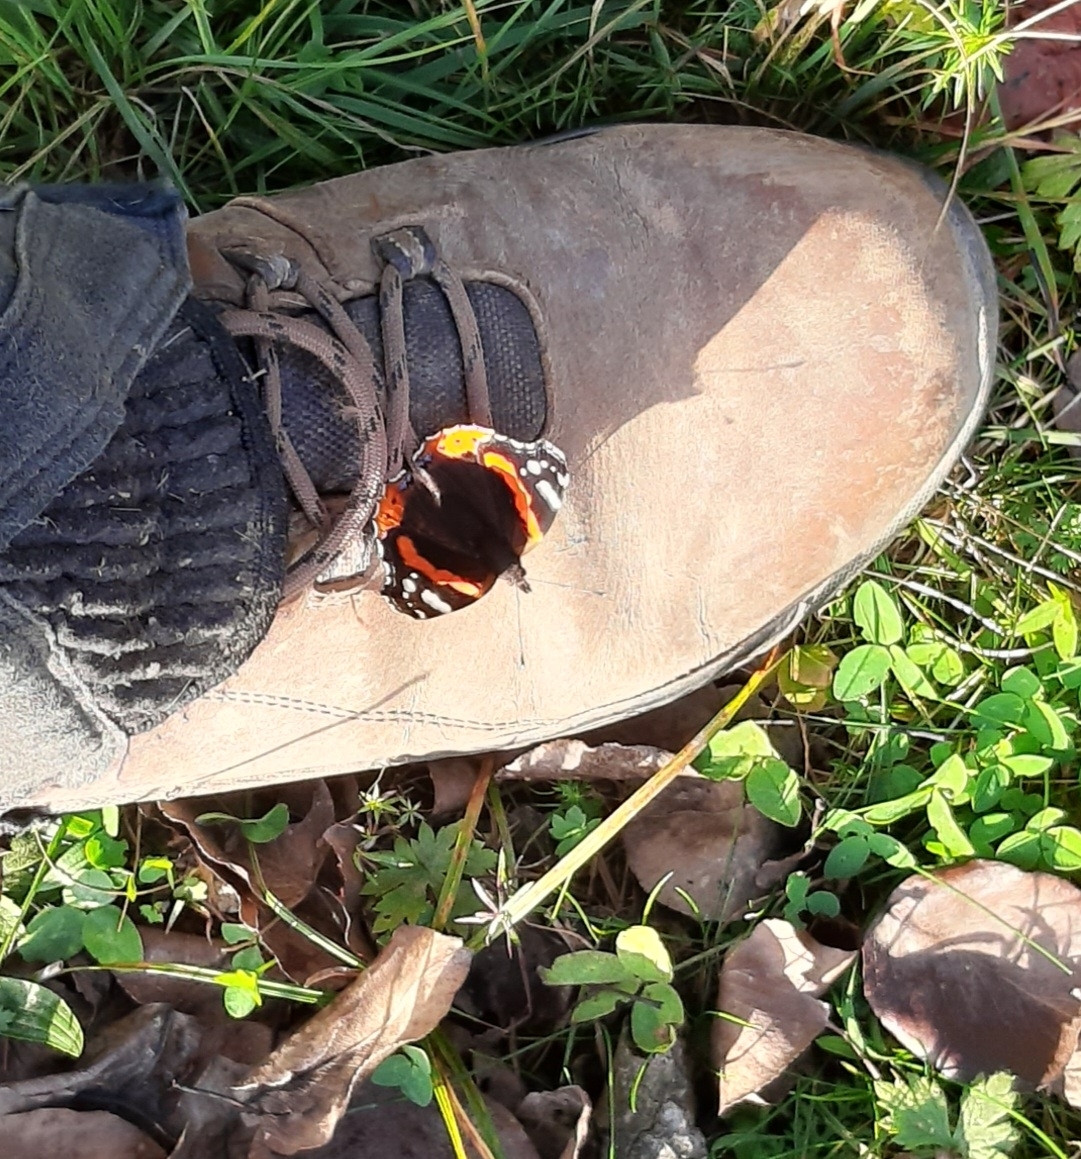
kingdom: Animalia
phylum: Arthropoda
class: Insecta
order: Lepidoptera
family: Nymphalidae
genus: Vanessa
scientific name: Vanessa atalanta
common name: Red admiral
